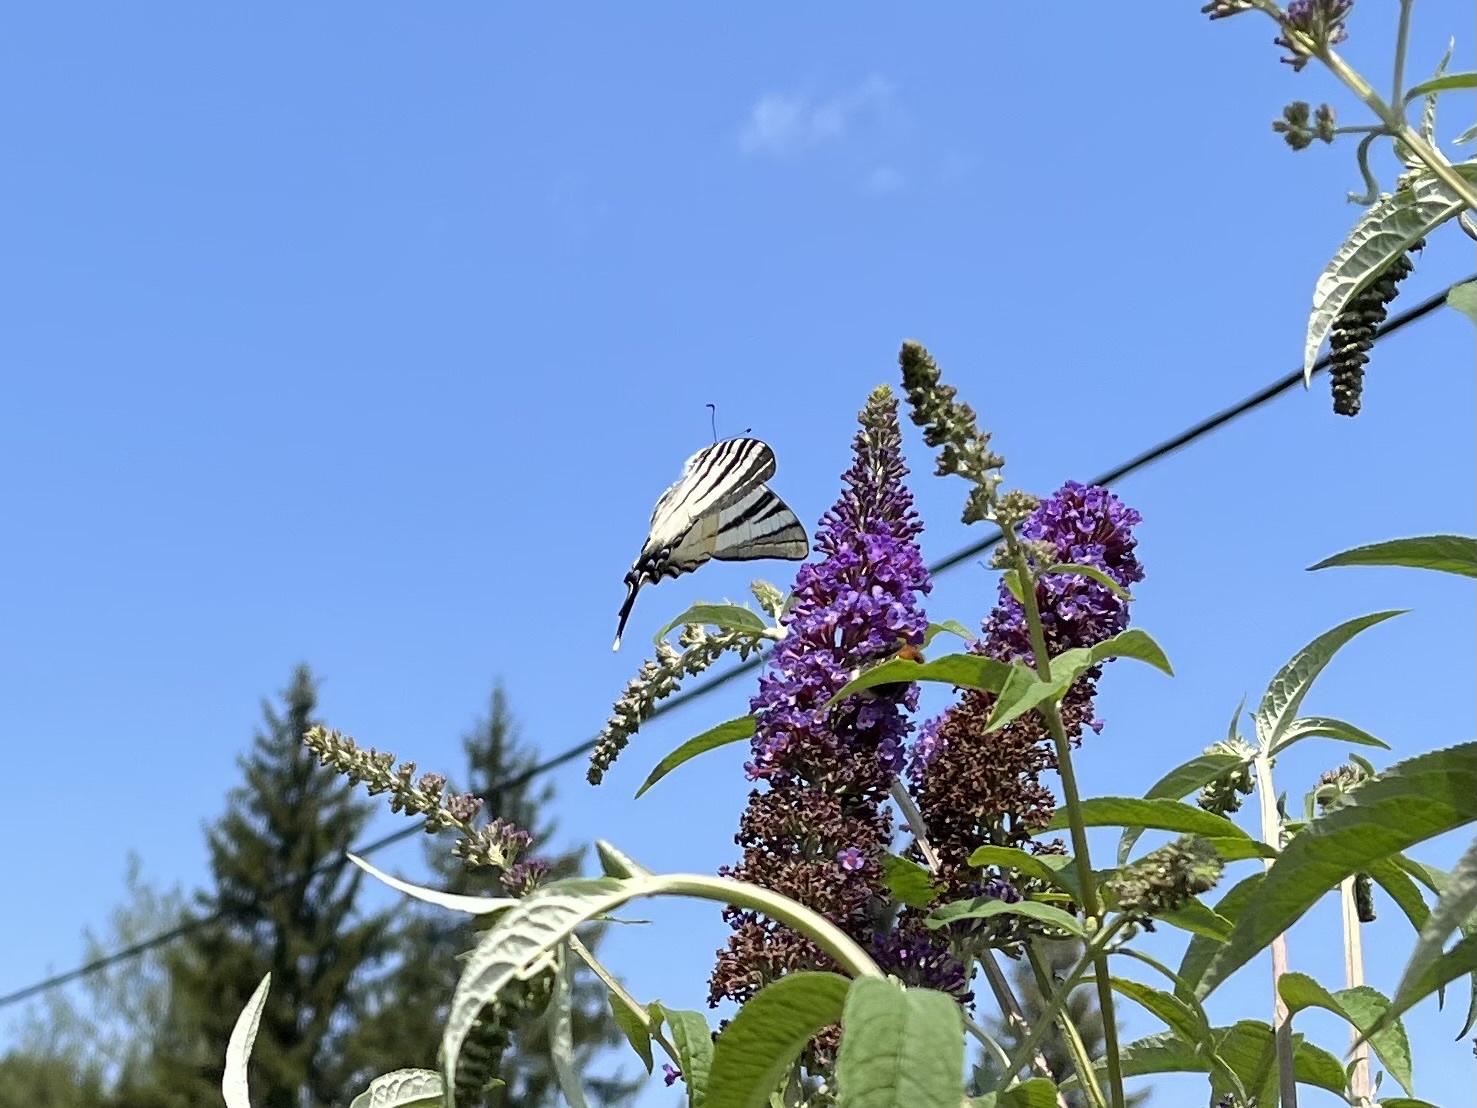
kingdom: Animalia
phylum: Arthropoda
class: Insecta
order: Lepidoptera
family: Papilionidae
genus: Iphiclides
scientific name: Iphiclides podalirius
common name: Scarce swallowtail
